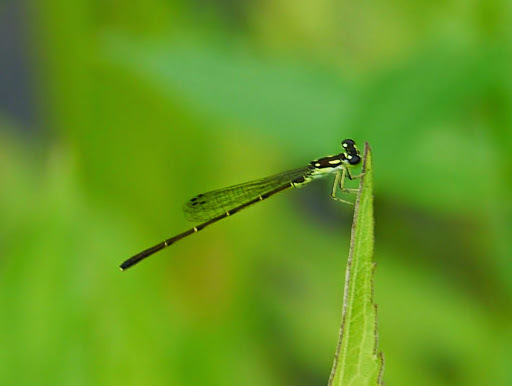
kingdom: Animalia
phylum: Arthropoda
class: Insecta
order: Odonata
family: Coenagrionidae
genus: Ischnura
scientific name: Ischnura posita
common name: Fragile forktail
